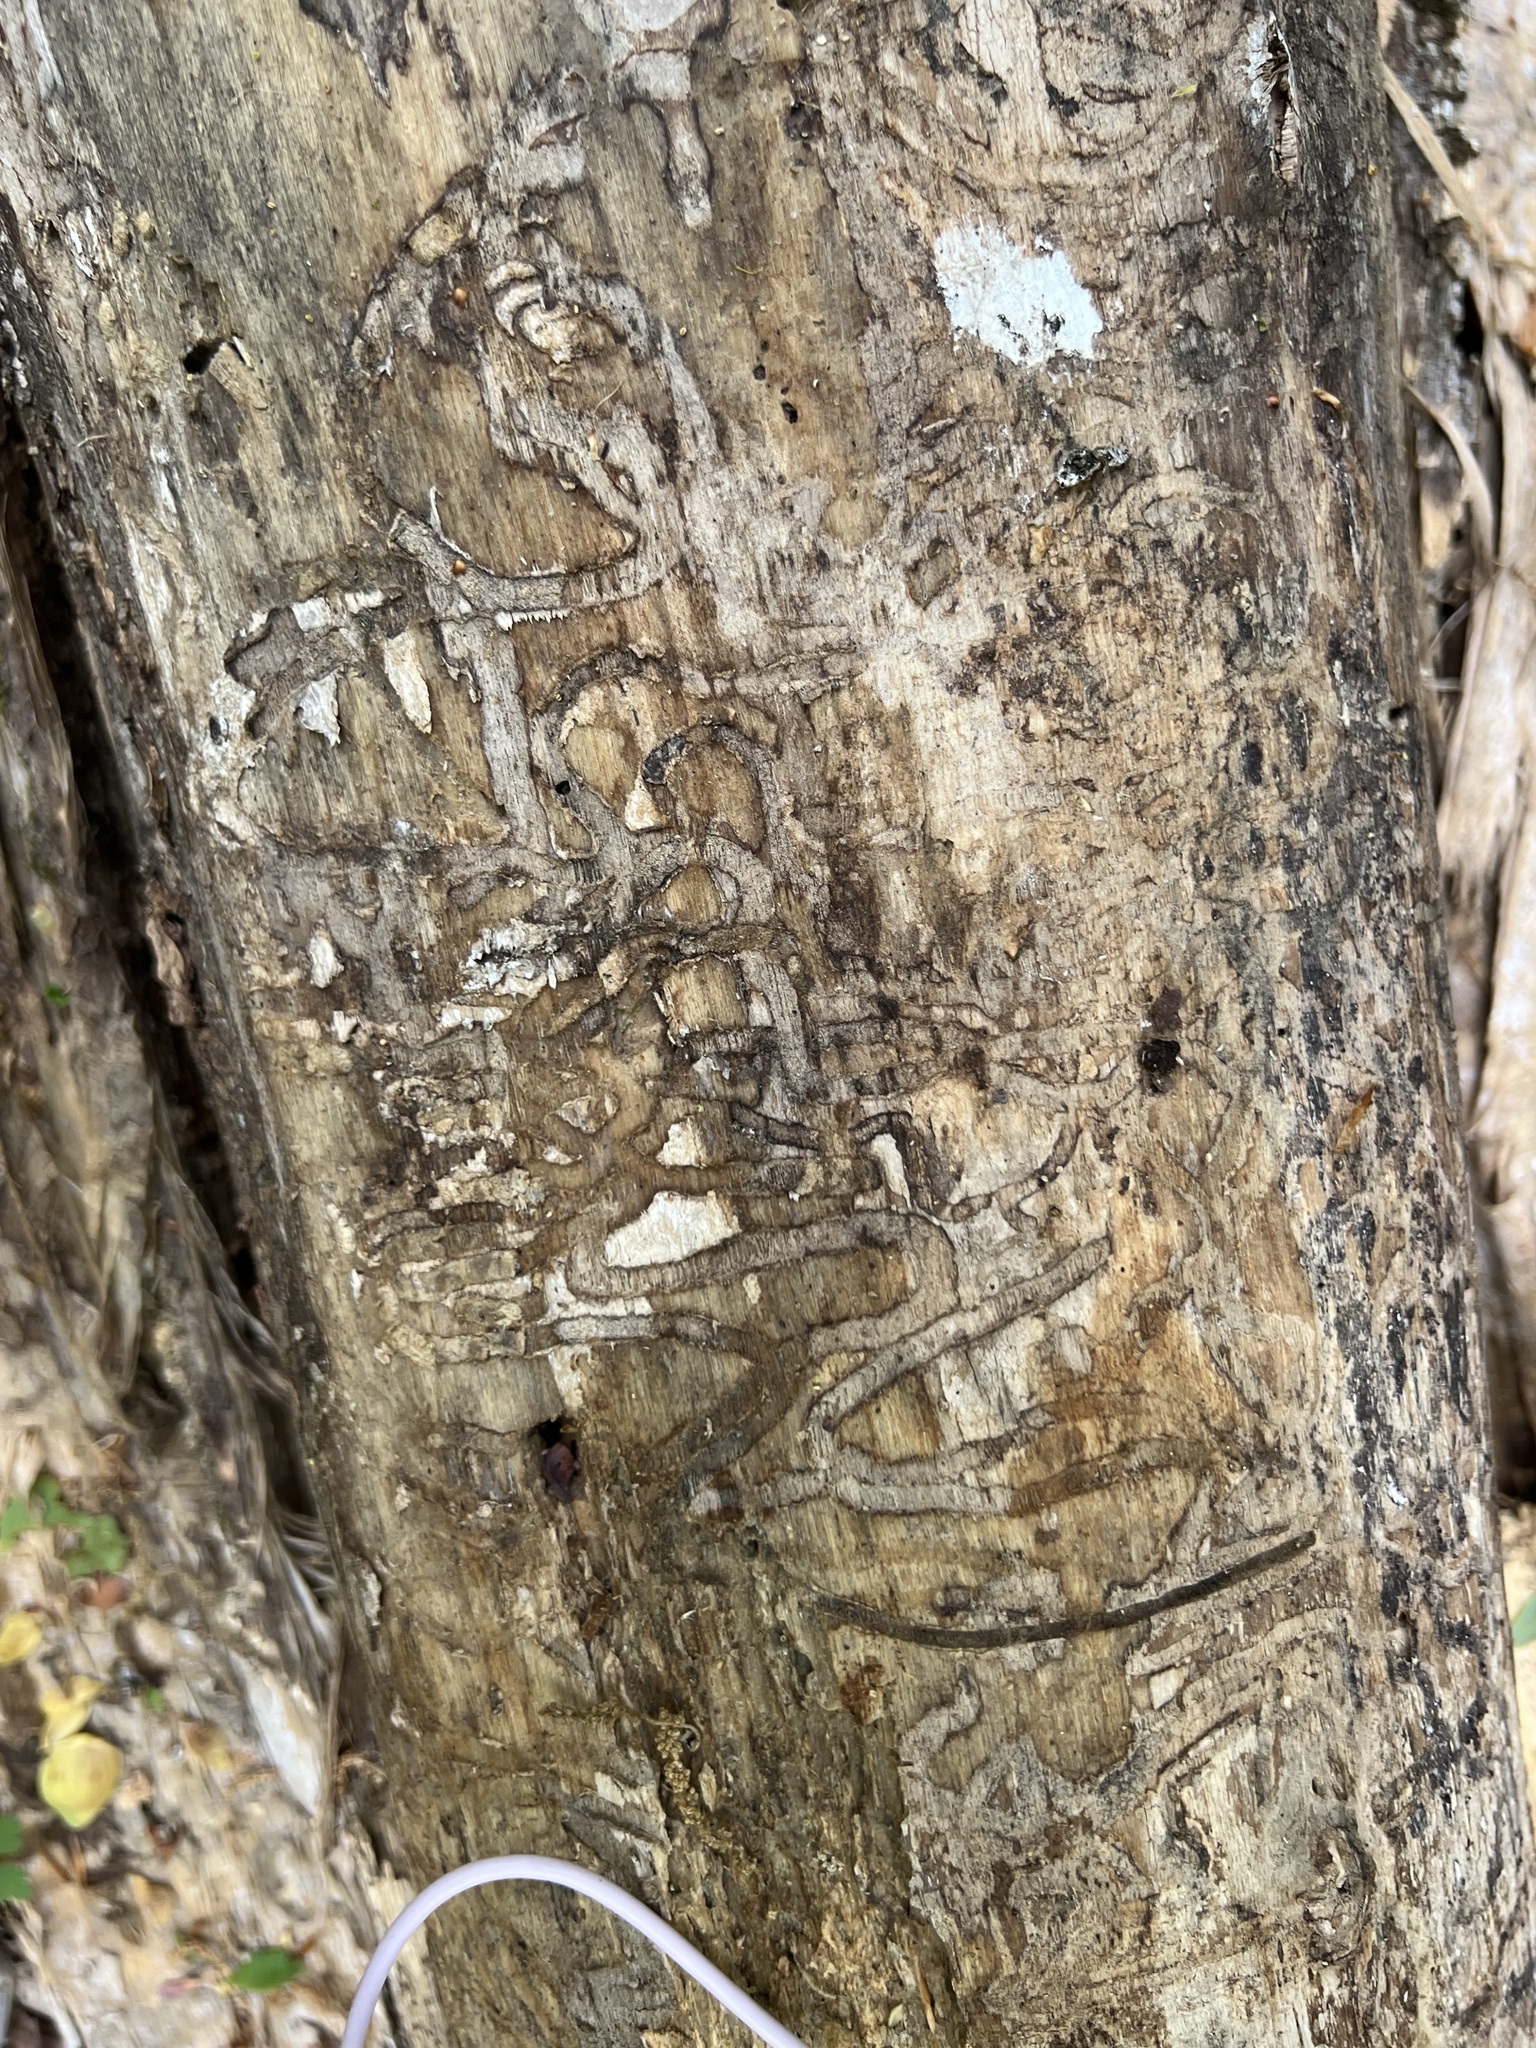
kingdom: Animalia
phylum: Arthropoda
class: Insecta
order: Coleoptera
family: Buprestidae
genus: Agrilus
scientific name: Agrilus planipennis
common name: Emerald ash borer
